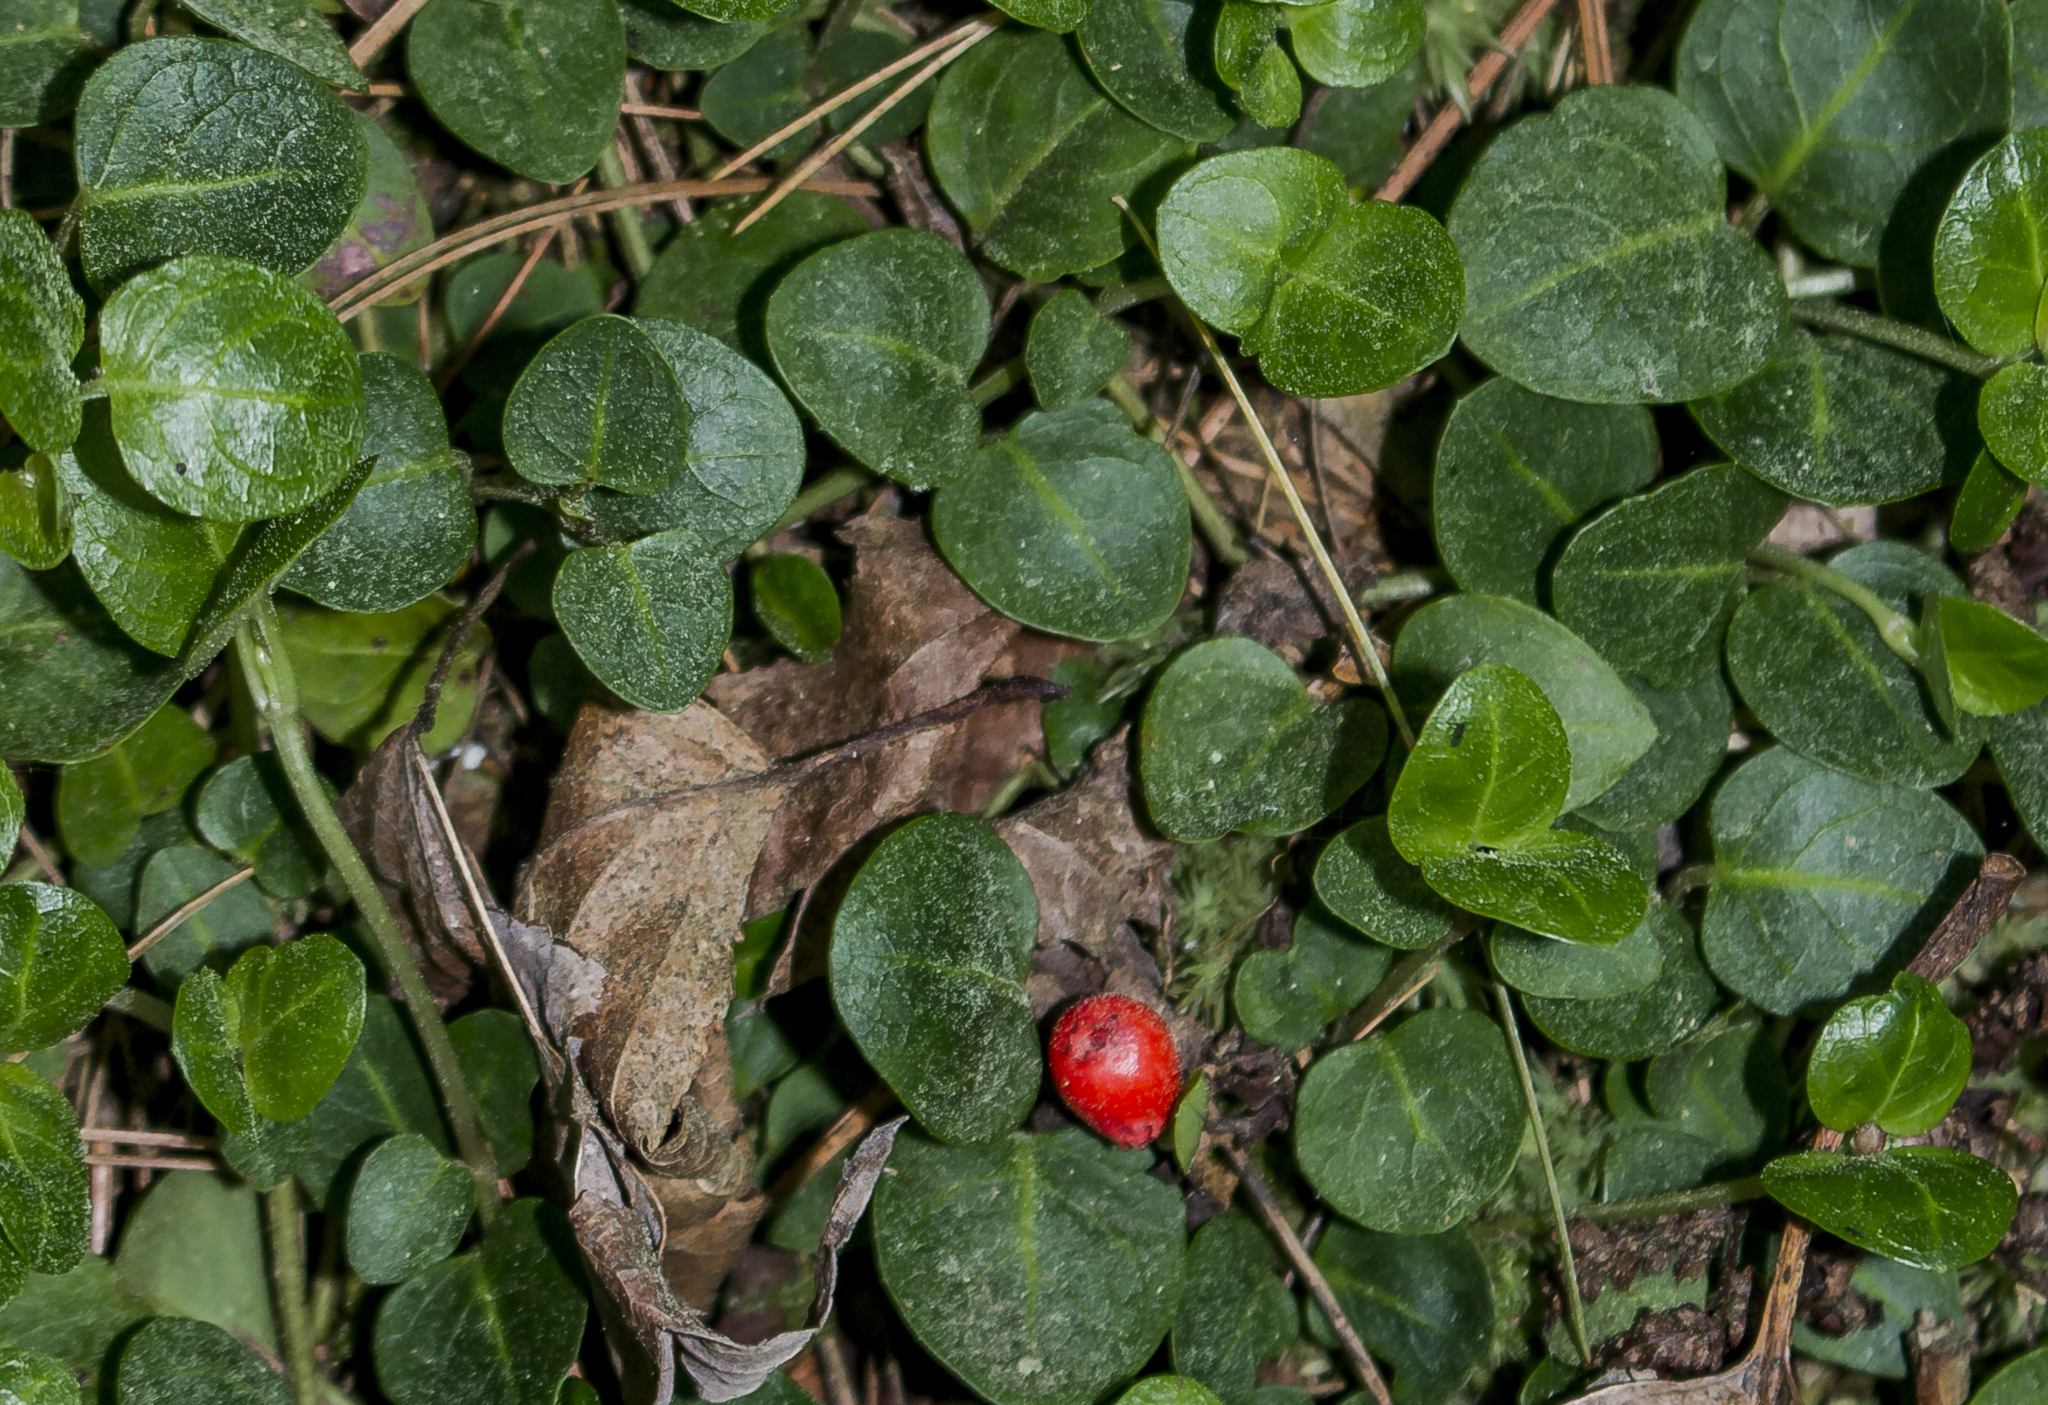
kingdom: Plantae
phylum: Tracheophyta
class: Magnoliopsida
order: Gentianales
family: Rubiaceae
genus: Mitchella
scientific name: Mitchella repens
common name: Partridge-berry
